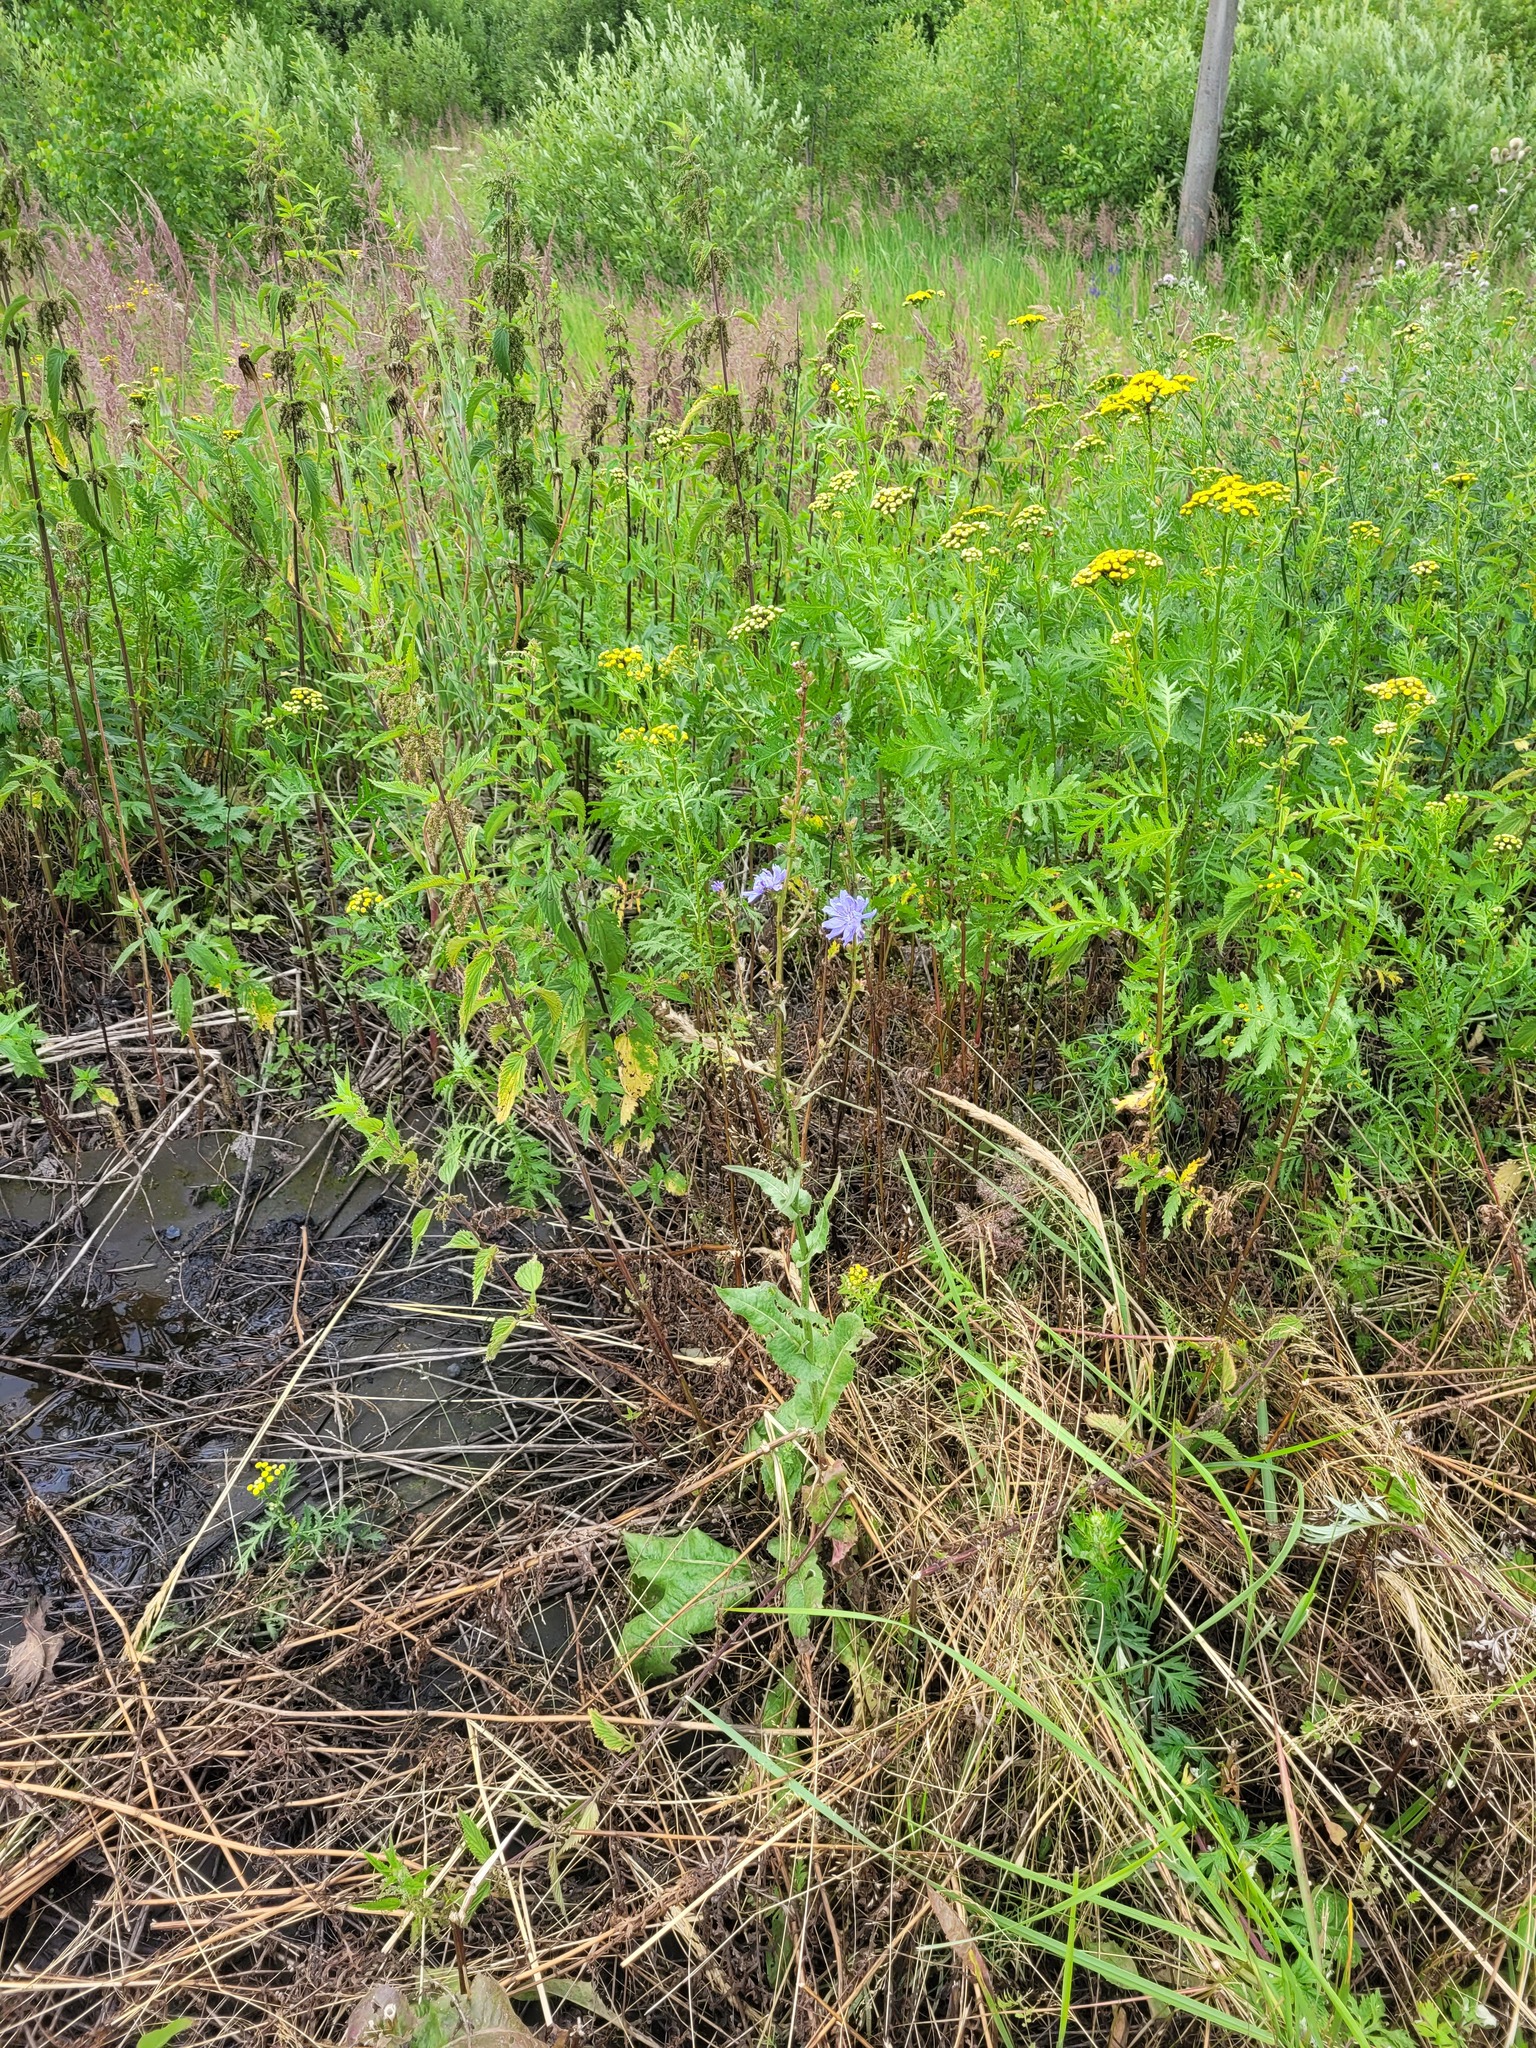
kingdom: Plantae
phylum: Tracheophyta
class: Magnoliopsida
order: Asterales
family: Asteraceae
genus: Cichorium
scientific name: Cichorium intybus
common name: Chicory
